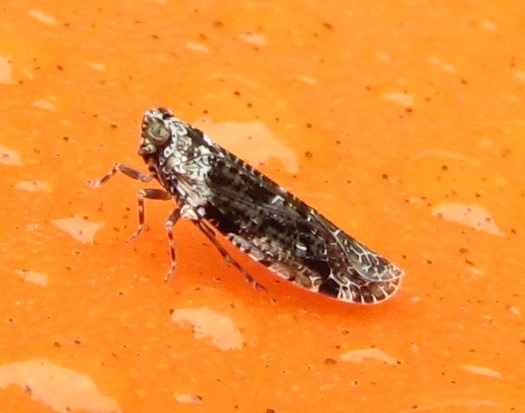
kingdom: Animalia
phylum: Arthropoda
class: Insecta
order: Hemiptera
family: Achilidae
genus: Catonia
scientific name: Catonia nava
